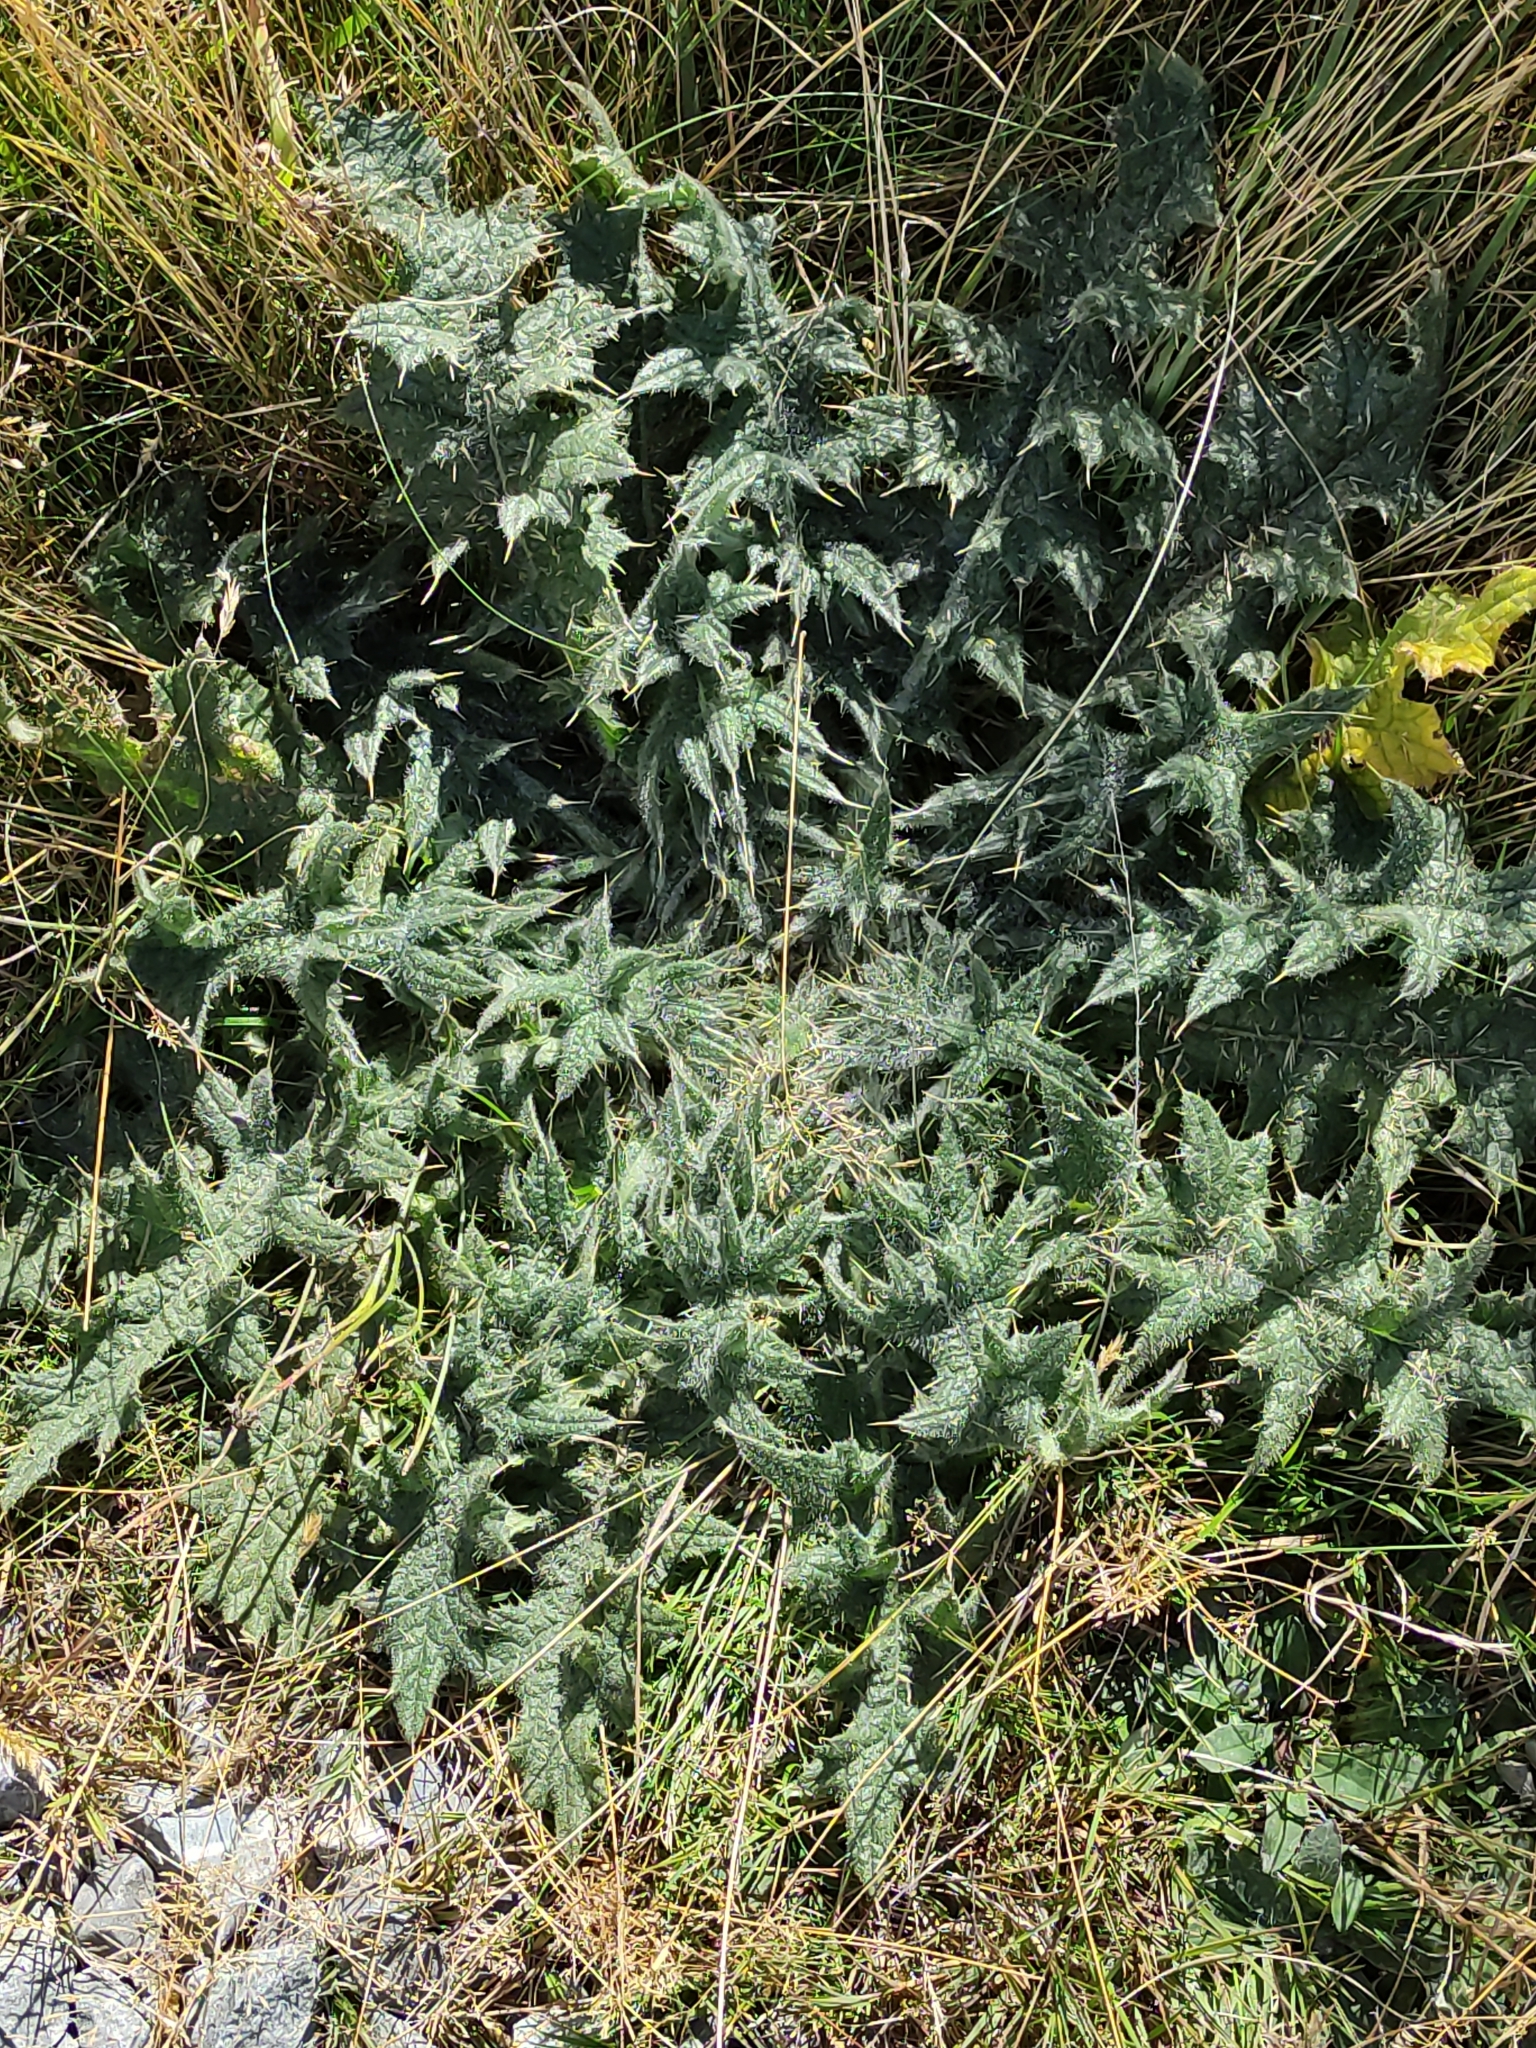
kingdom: Plantae
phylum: Tracheophyta
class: Magnoliopsida
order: Asterales
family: Asteraceae
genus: Cirsium
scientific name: Cirsium vulgare
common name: Bull thistle
